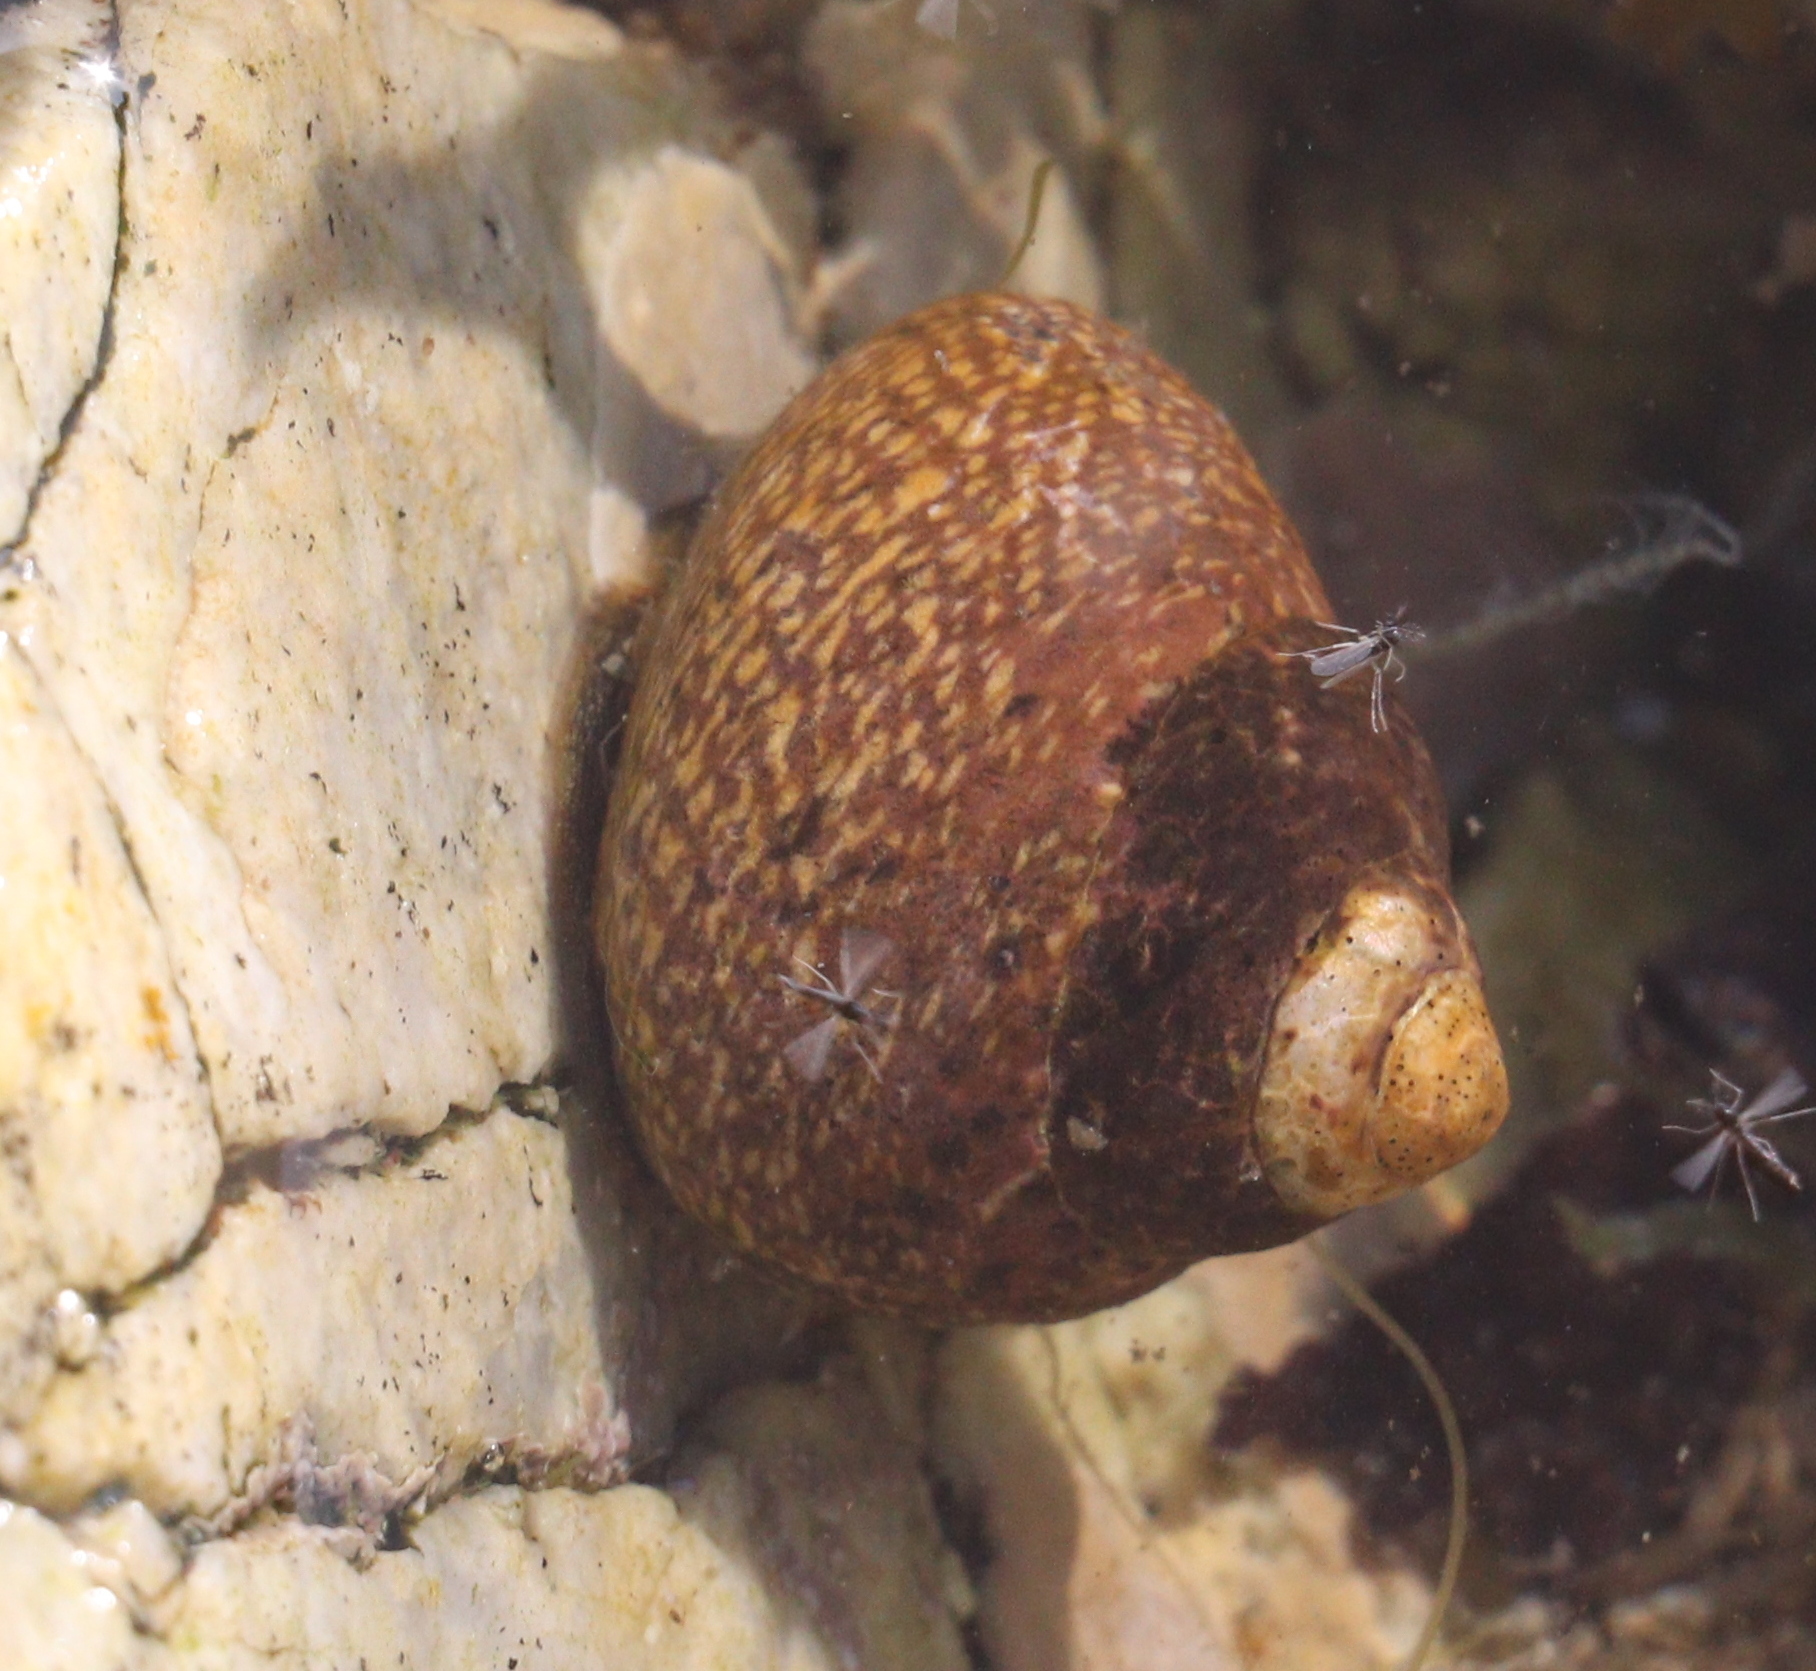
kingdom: Animalia
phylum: Mollusca
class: Gastropoda
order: Trochida
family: Trochidae
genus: Phorcus
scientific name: Phorcus lineatus
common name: Toothed top shell
